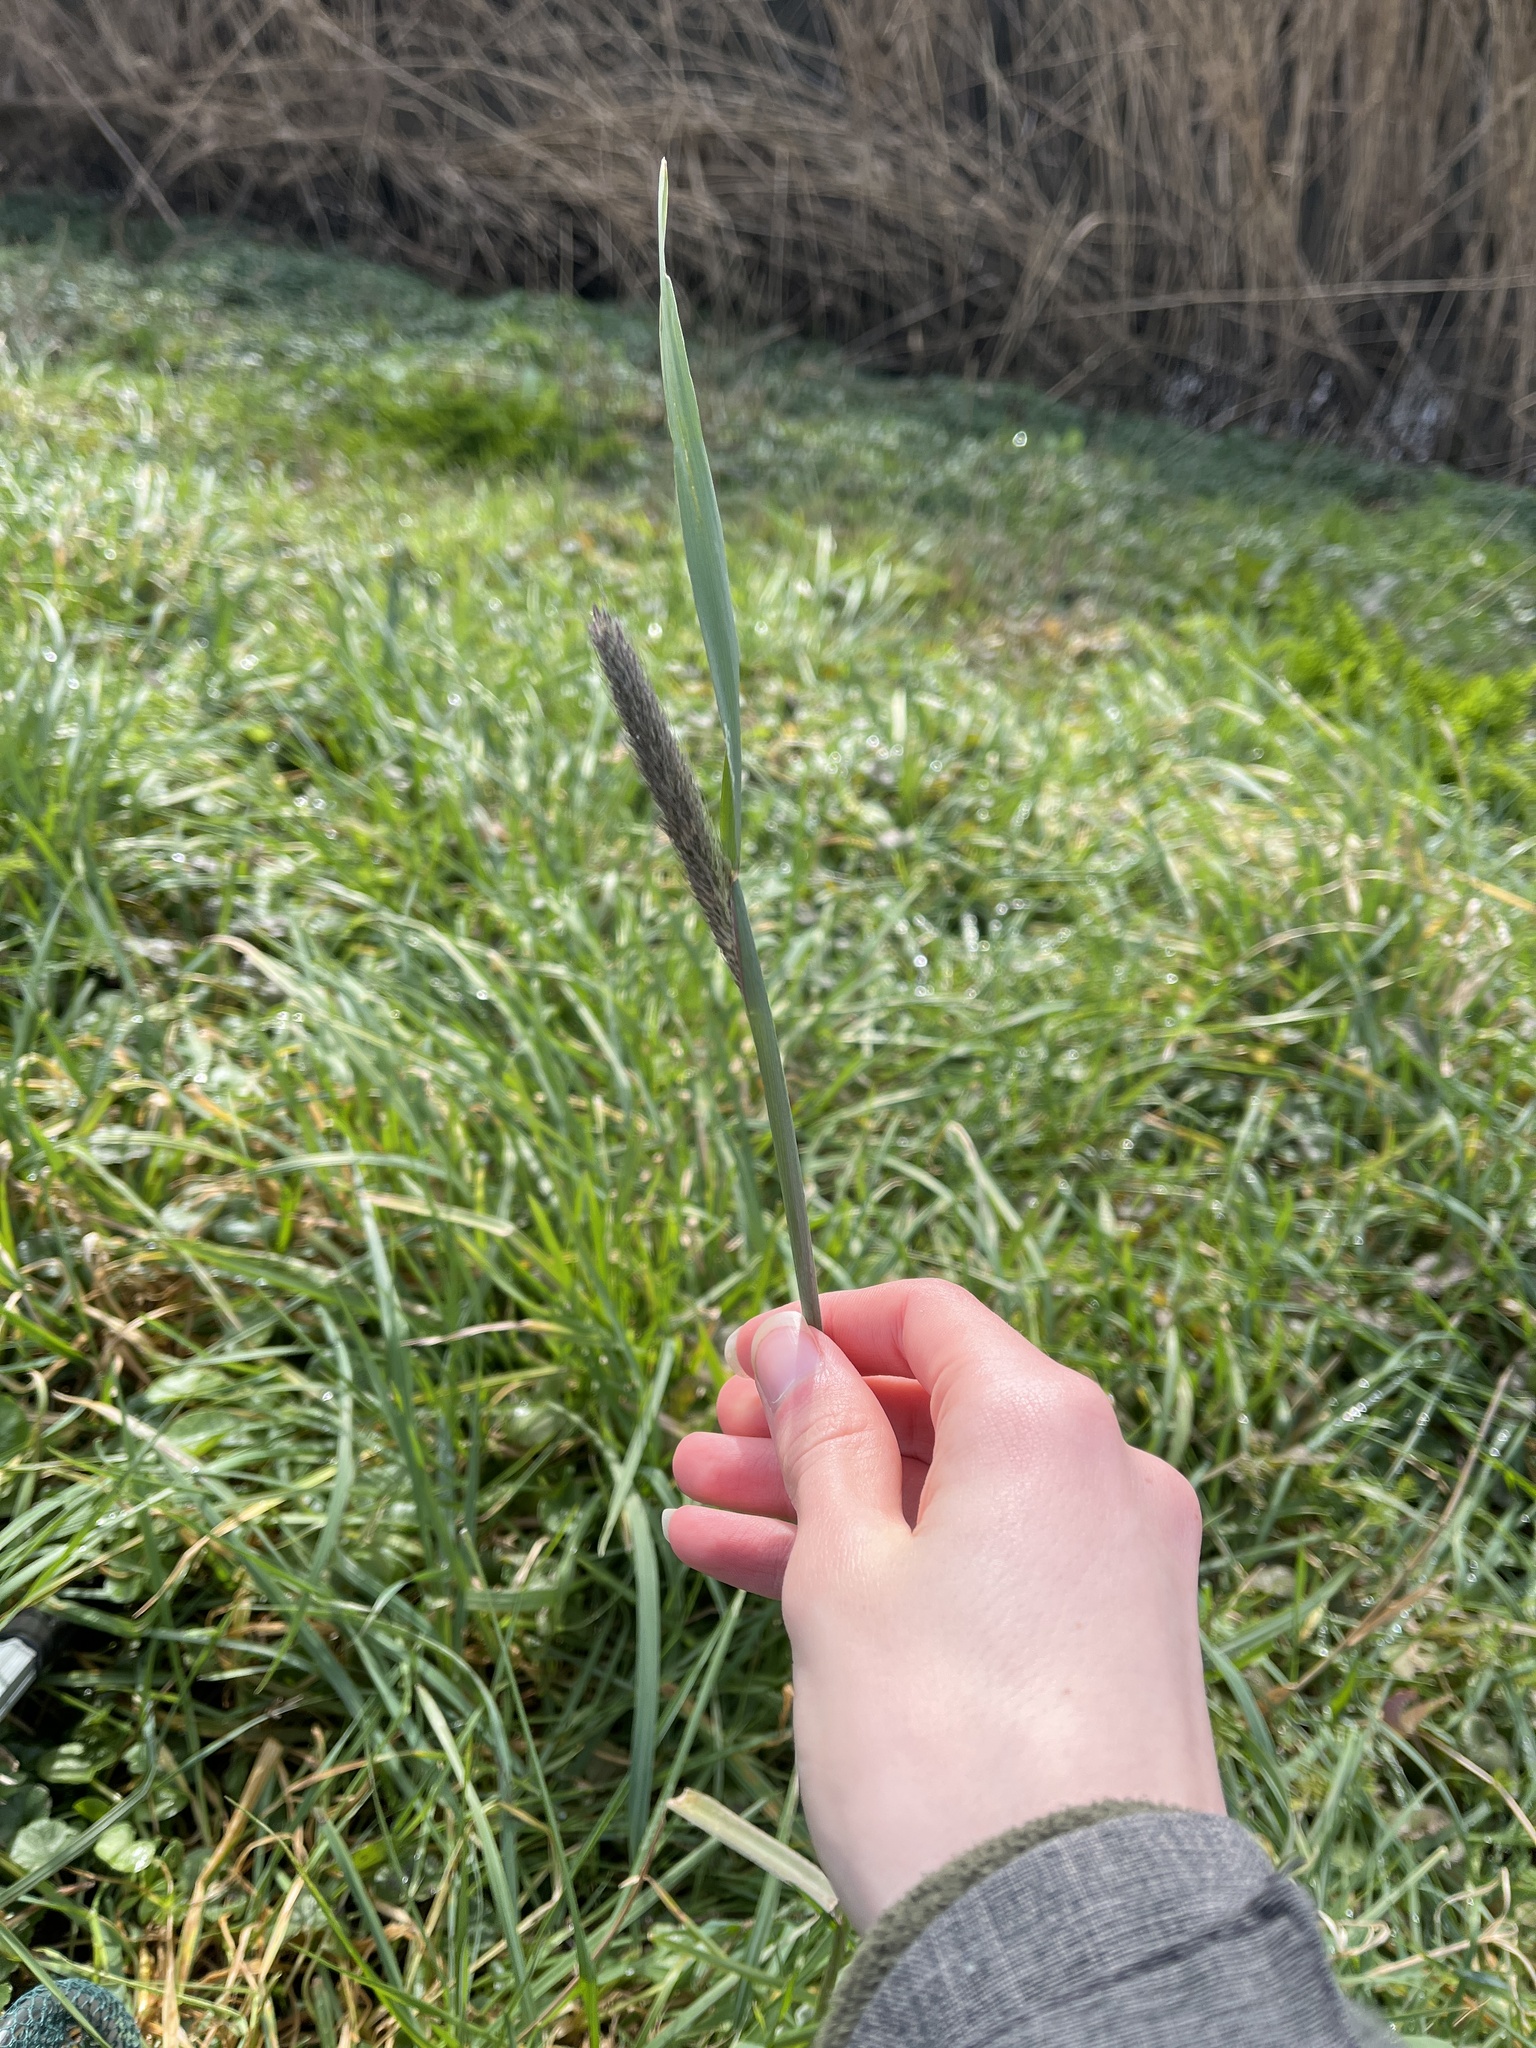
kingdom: Plantae
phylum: Tracheophyta
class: Liliopsida
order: Poales
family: Poaceae
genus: Alopecurus
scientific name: Alopecurus pratensis
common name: Meadow foxtail
